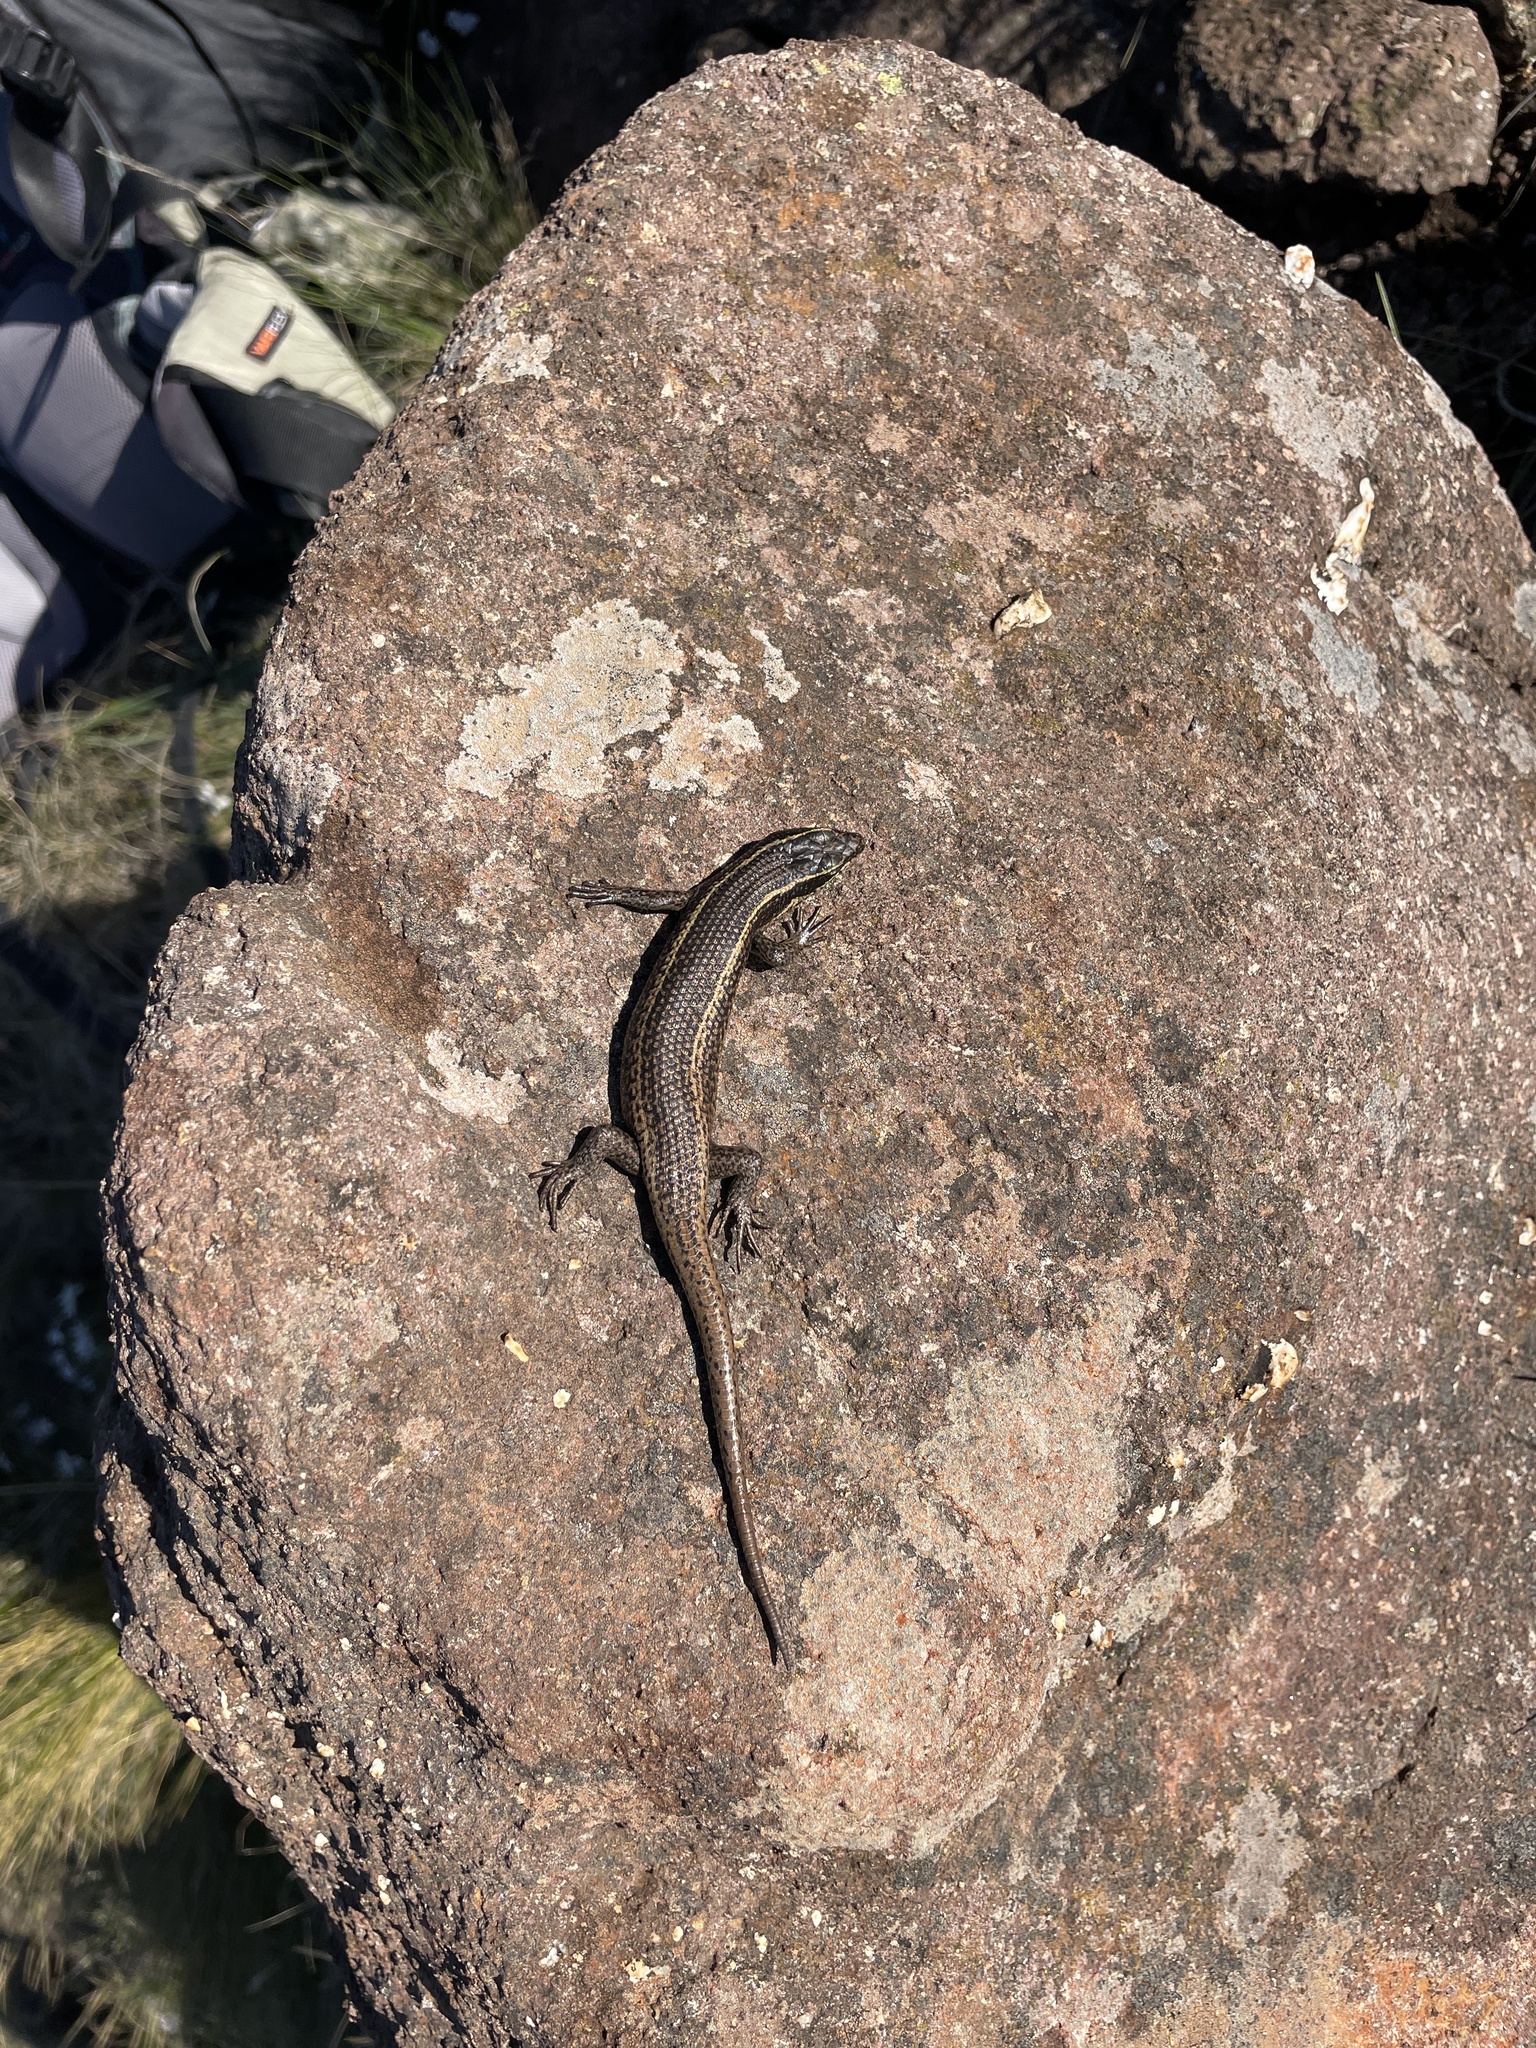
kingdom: Animalia
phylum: Chordata
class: Squamata
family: Scincidae
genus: Trachylepis
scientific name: Trachylepis punctatissima
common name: Montane speckled skink
